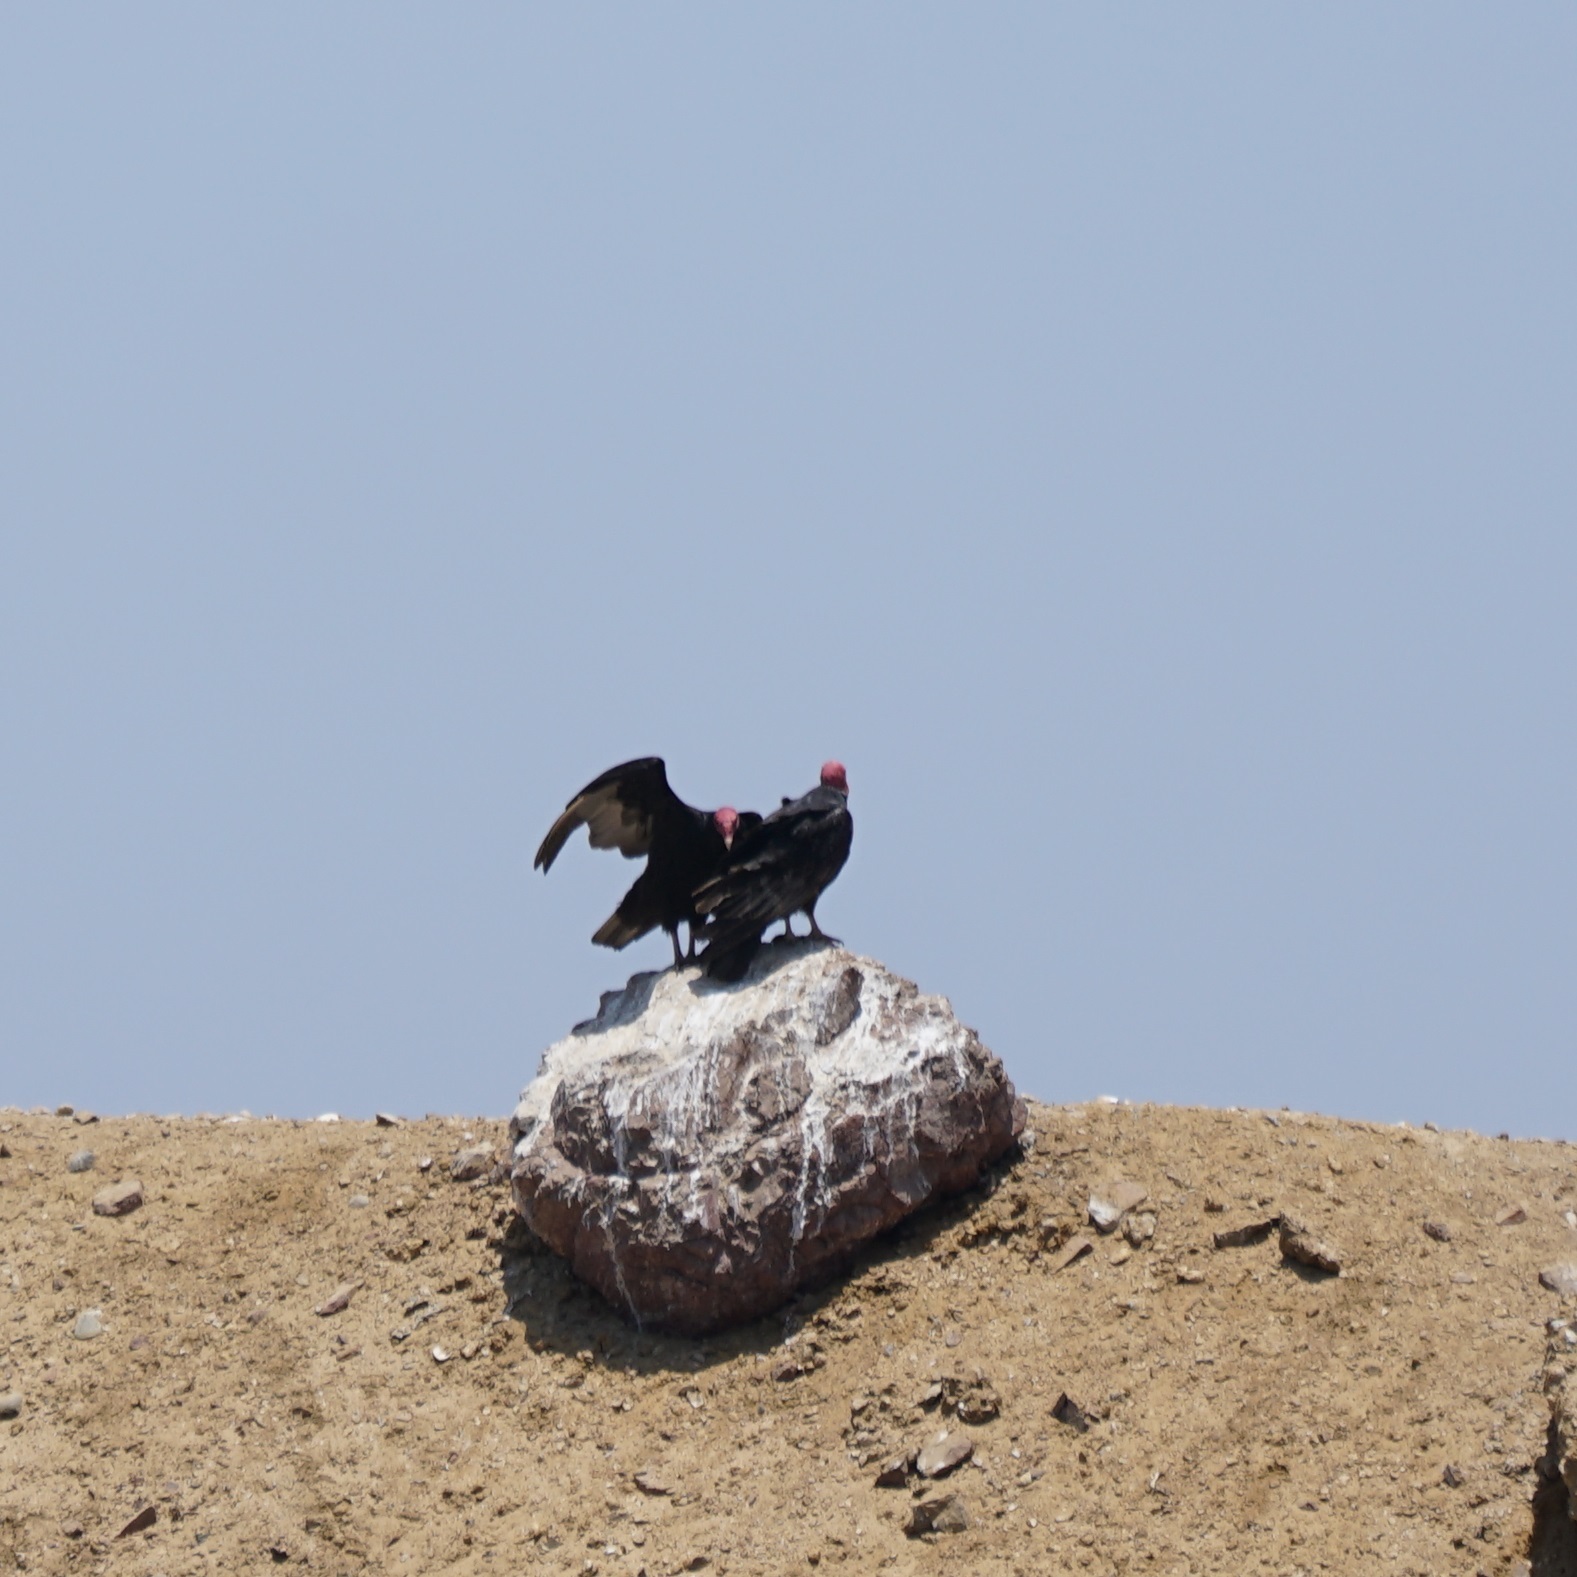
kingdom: Animalia
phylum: Chordata
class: Aves
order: Accipitriformes
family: Cathartidae
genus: Cathartes
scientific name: Cathartes aura
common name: Turkey vulture
